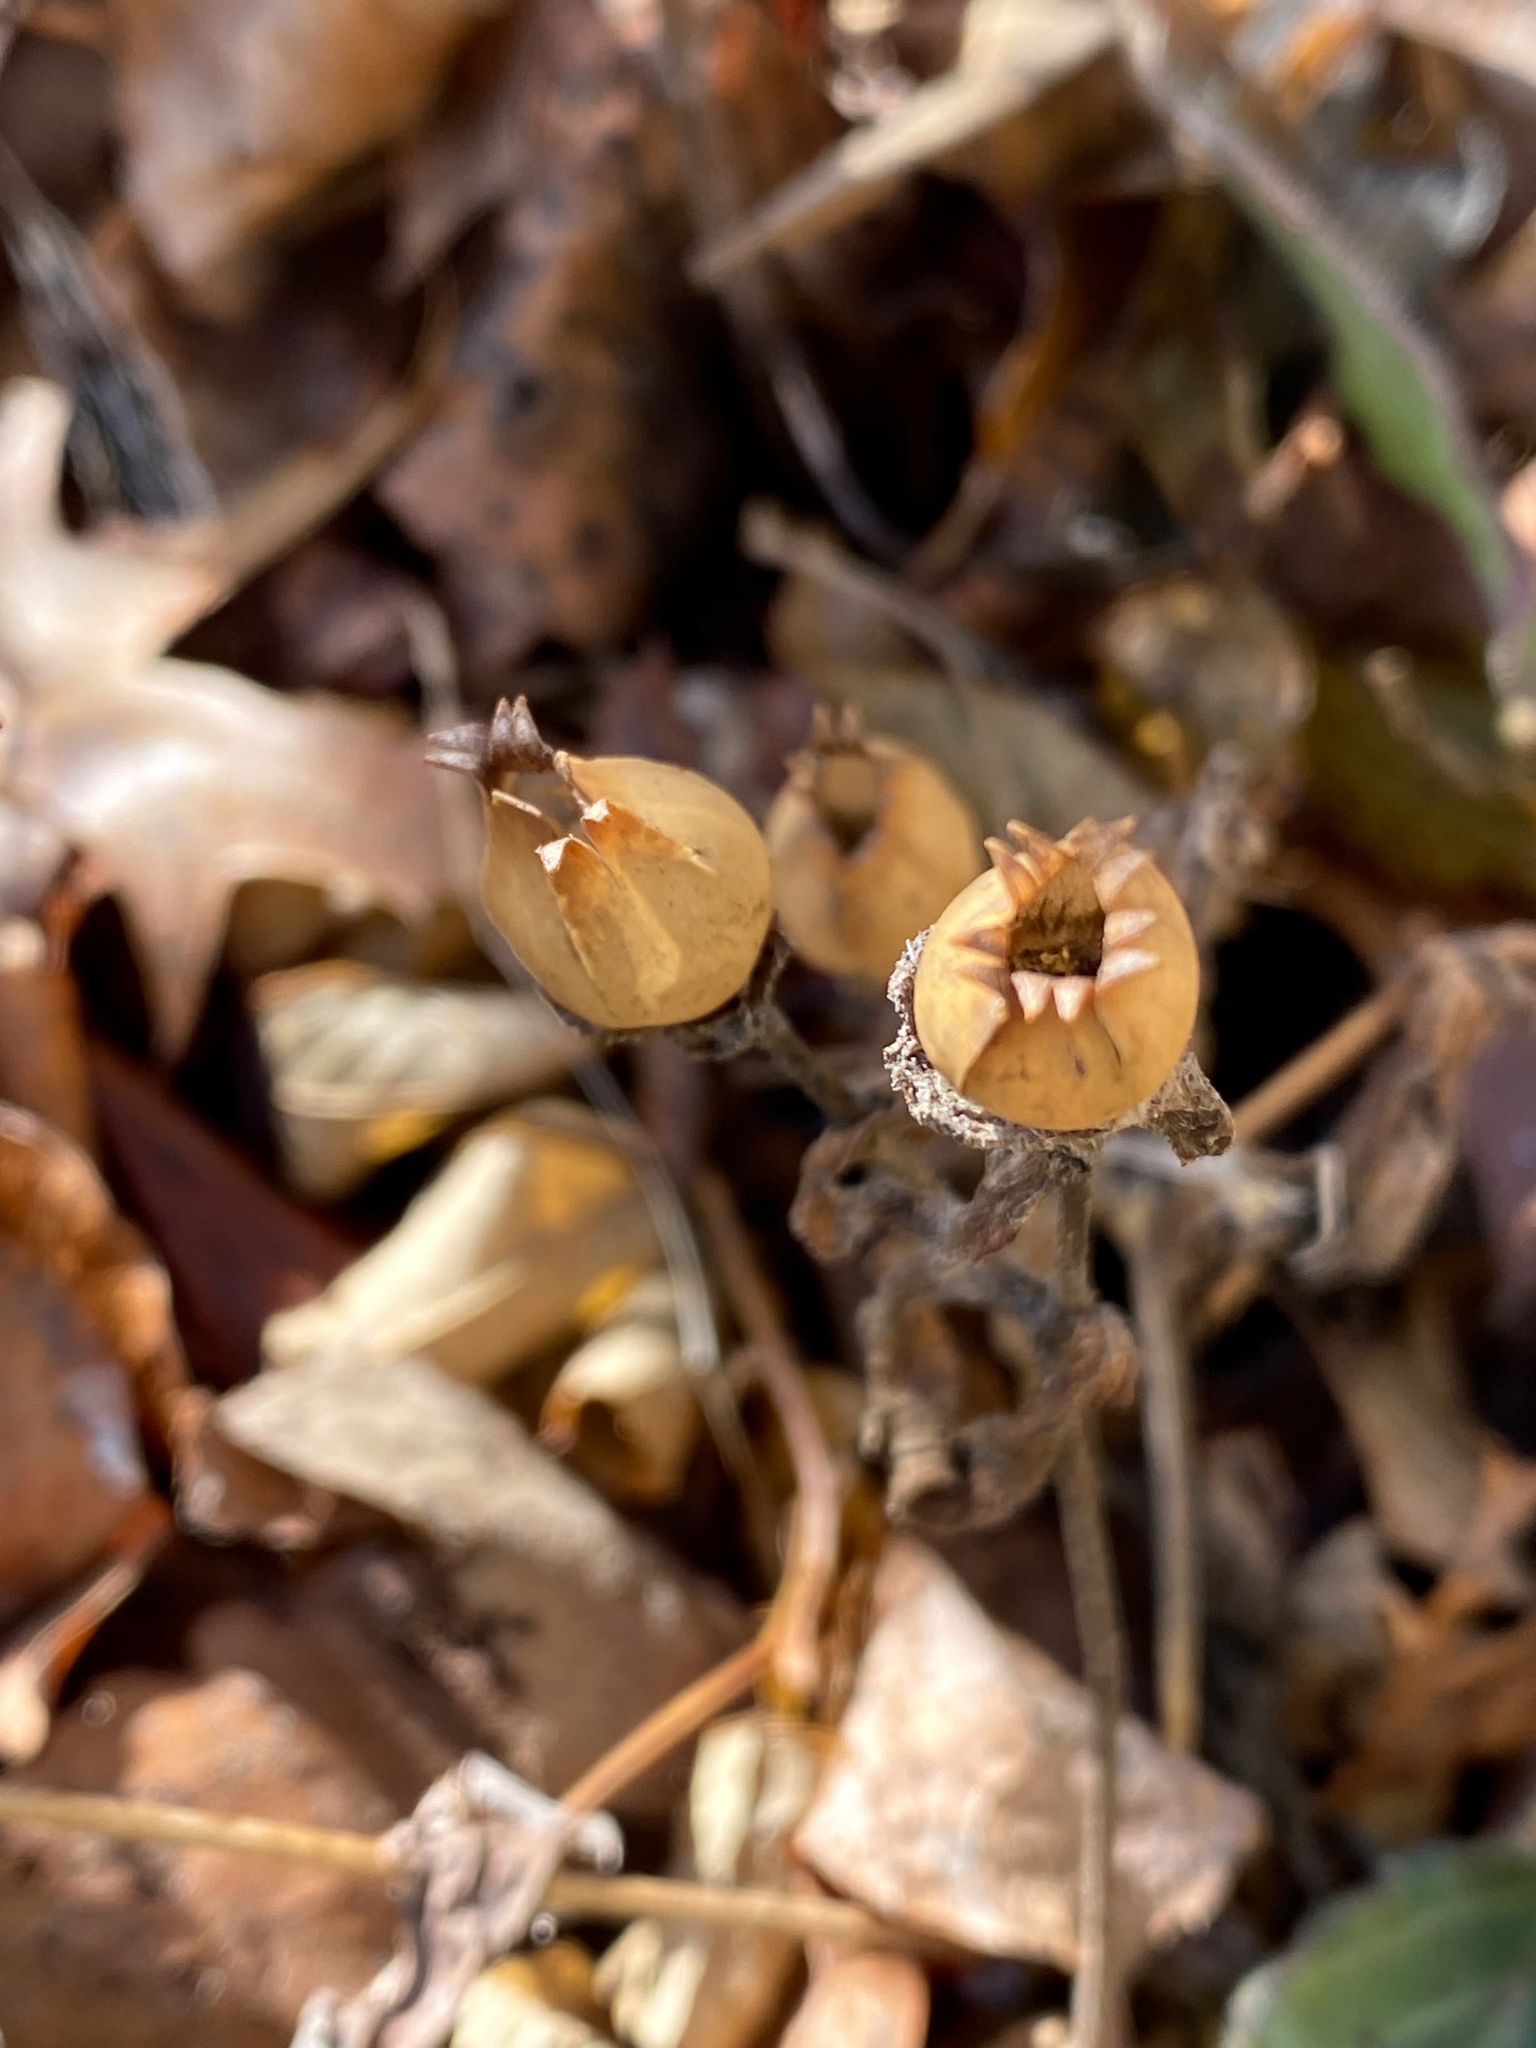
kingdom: Plantae
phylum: Tracheophyta
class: Magnoliopsida
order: Caryophyllales
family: Caryophyllaceae
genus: Silene
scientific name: Silene latifolia
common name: White campion
